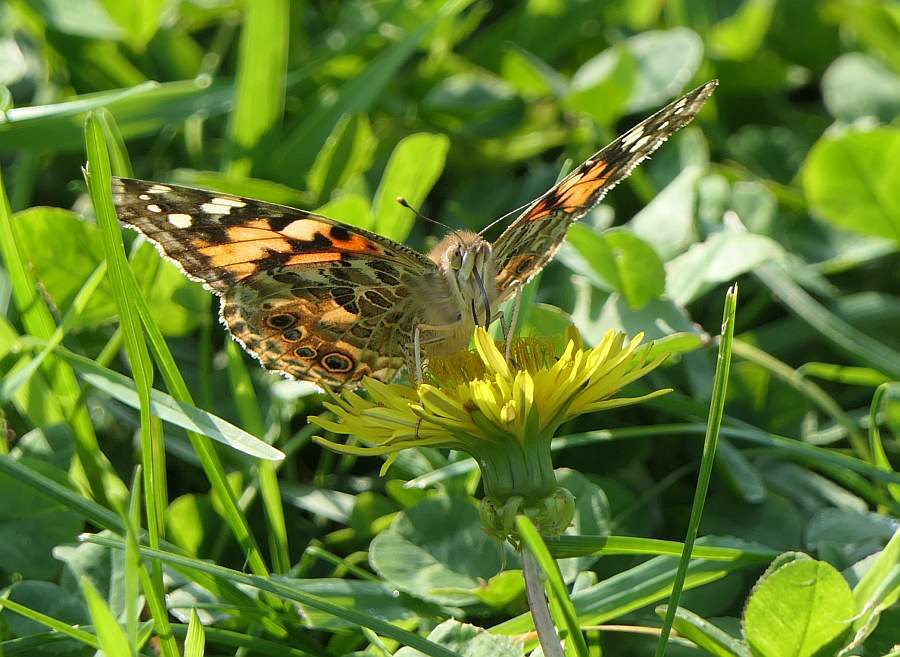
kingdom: Animalia
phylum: Arthropoda
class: Insecta
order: Lepidoptera
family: Nymphalidae
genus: Vanessa
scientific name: Vanessa cardui
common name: Painted lady
